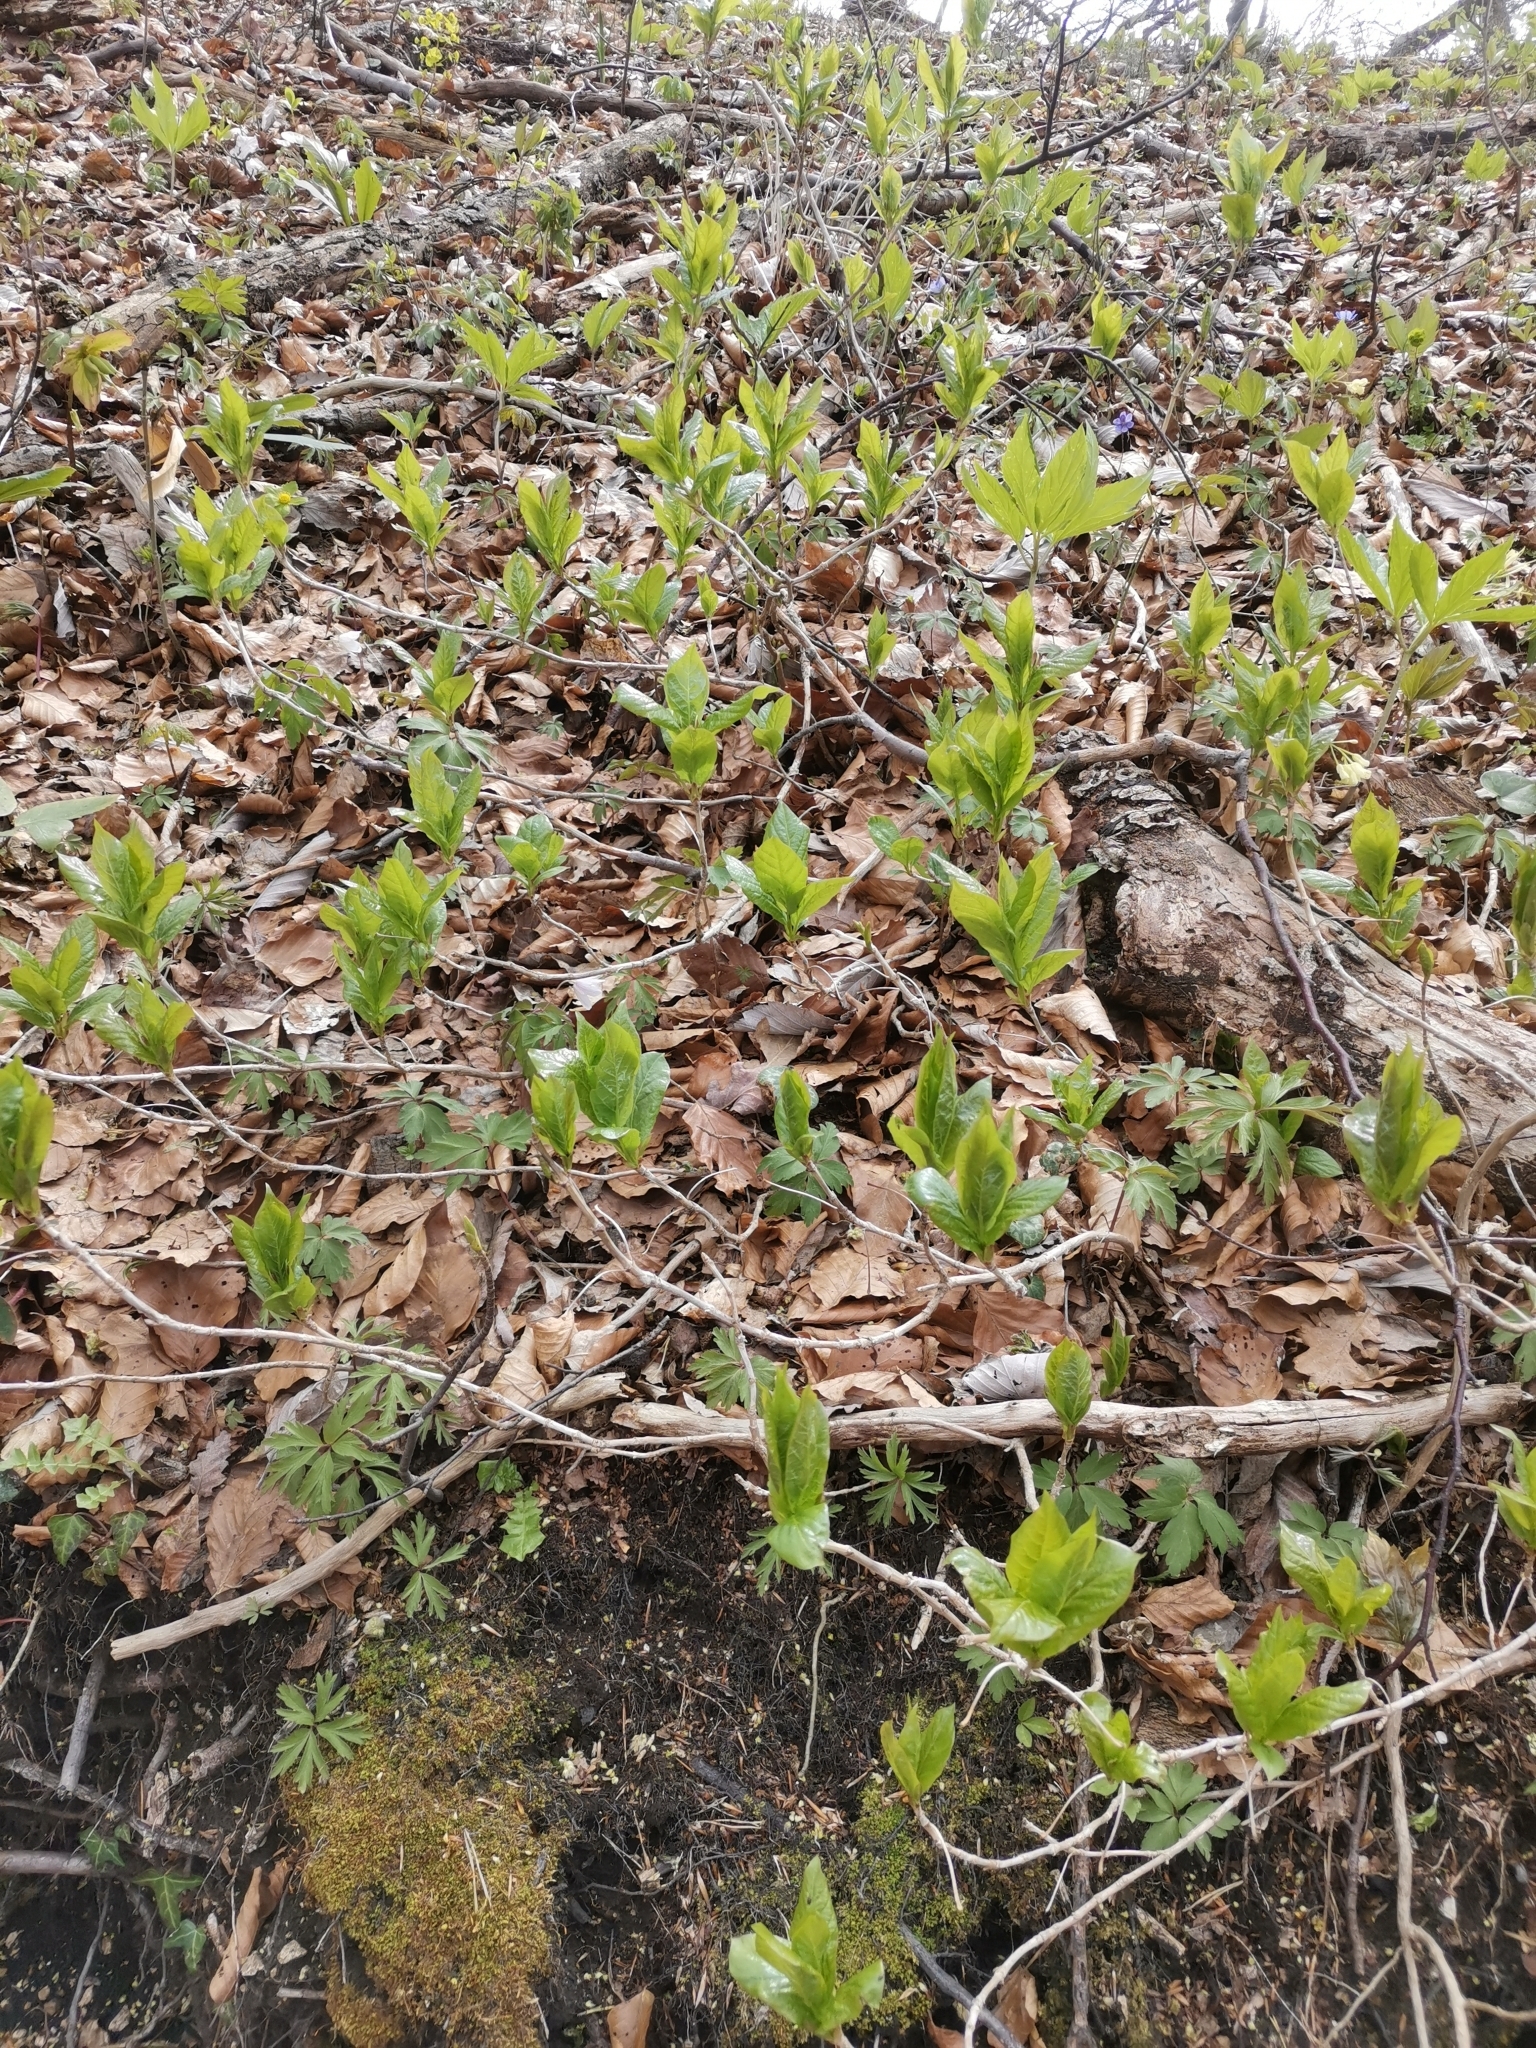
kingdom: Plantae
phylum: Tracheophyta
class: Magnoliopsida
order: Dipsacales
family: Caprifoliaceae
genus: Lonicera
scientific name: Lonicera alpigena
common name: Alpine honeysuckle
